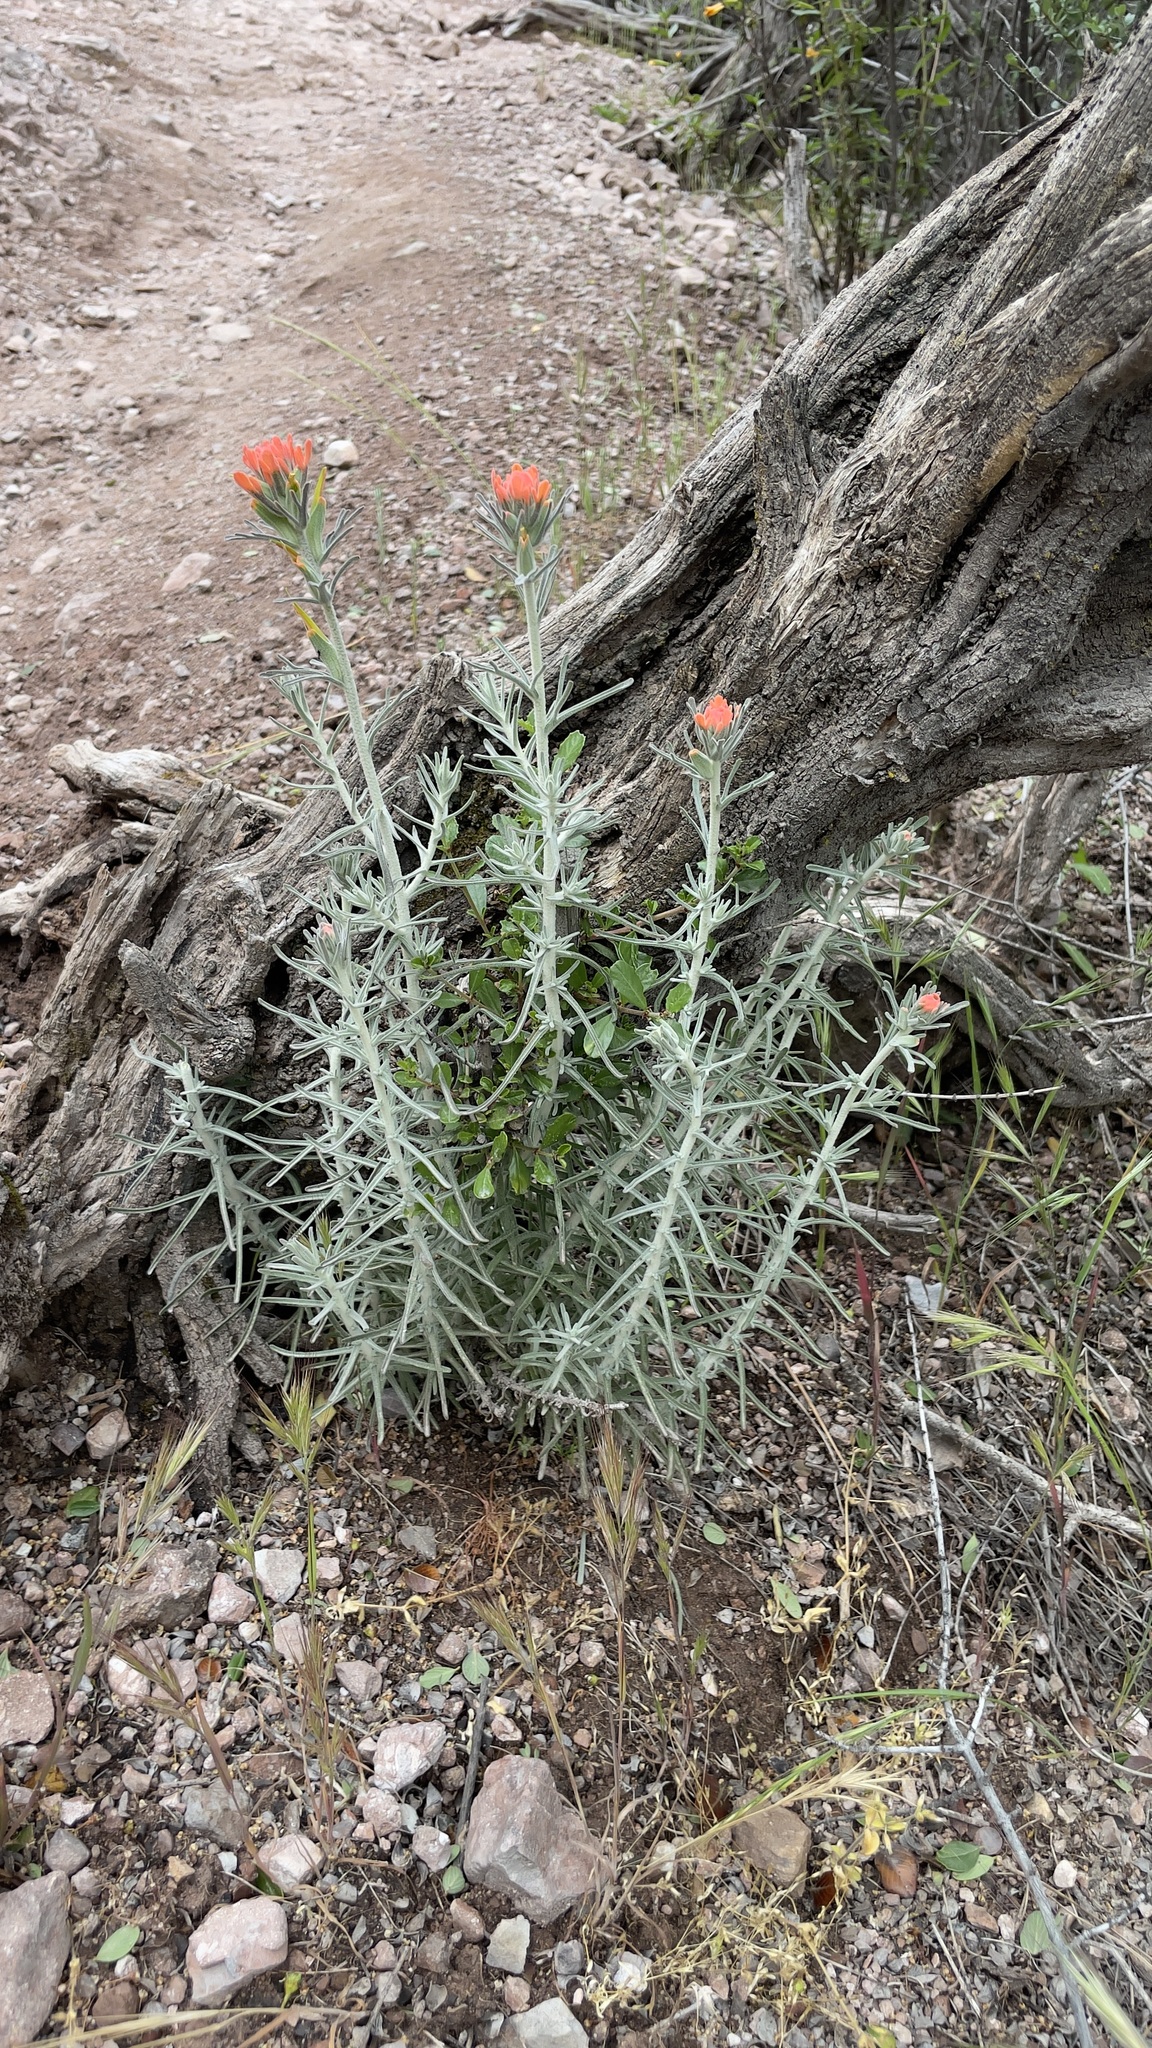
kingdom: Plantae
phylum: Tracheophyta
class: Magnoliopsida
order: Lamiales
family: Orobanchaceae
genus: Castilleja
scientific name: Castilleja foliolosa
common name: Woolly indian paintbrush
